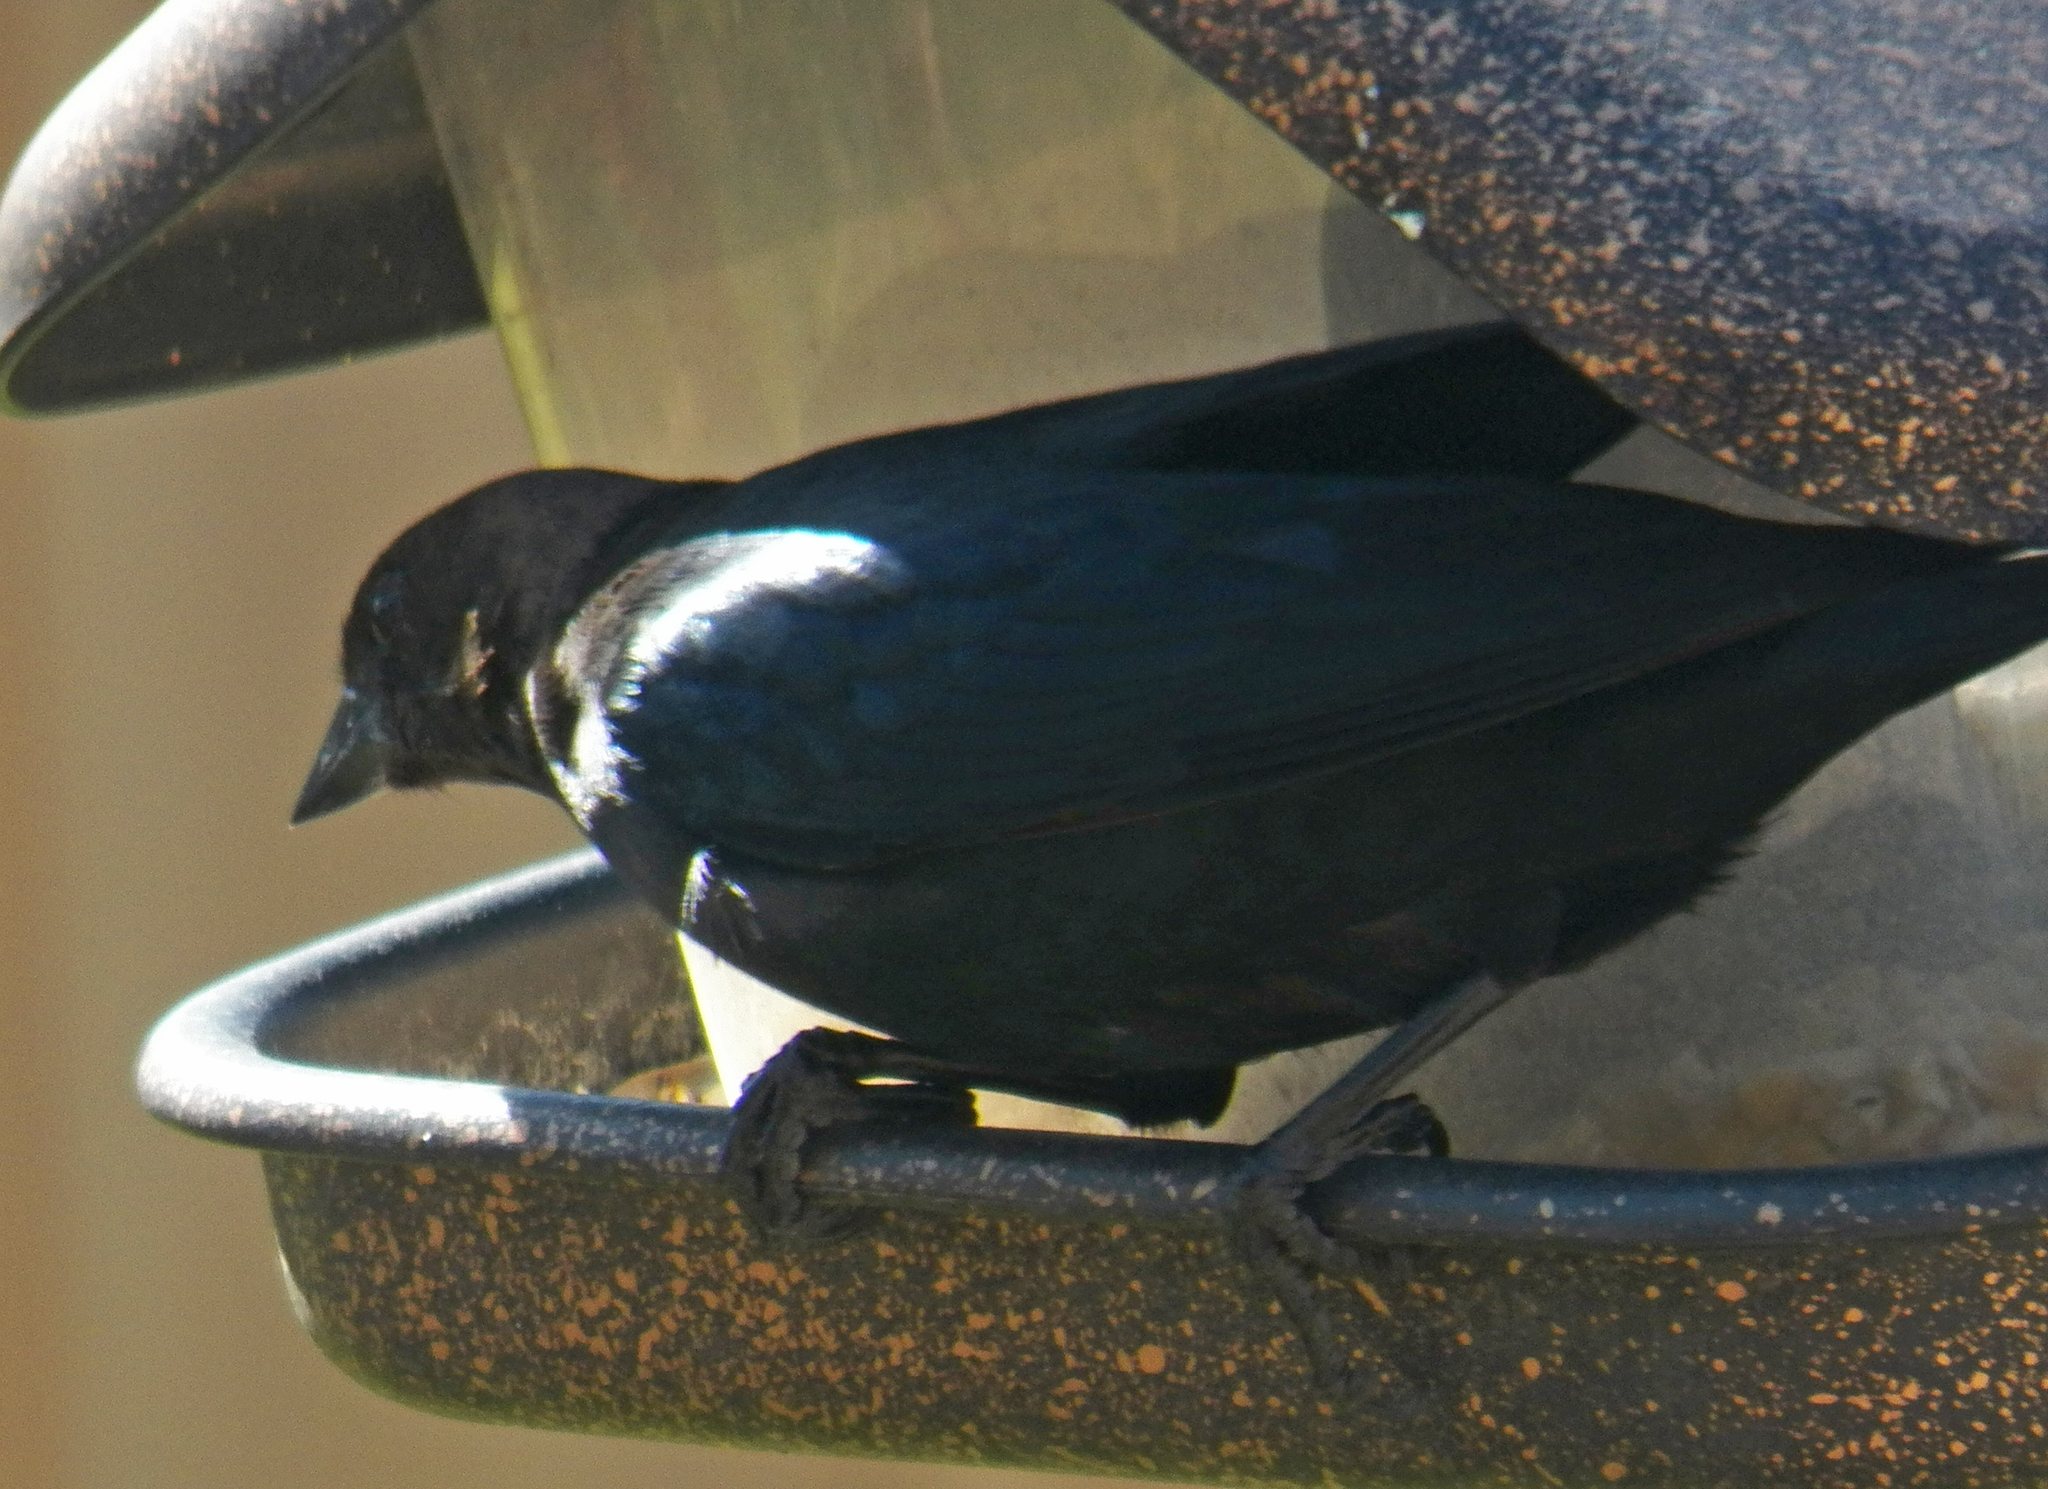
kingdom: Animalia
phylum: Chordata
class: Aves
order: Passeriformes
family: Icteridae
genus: Molothrus
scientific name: Molothrus ater
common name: Brown-headed cowbird
